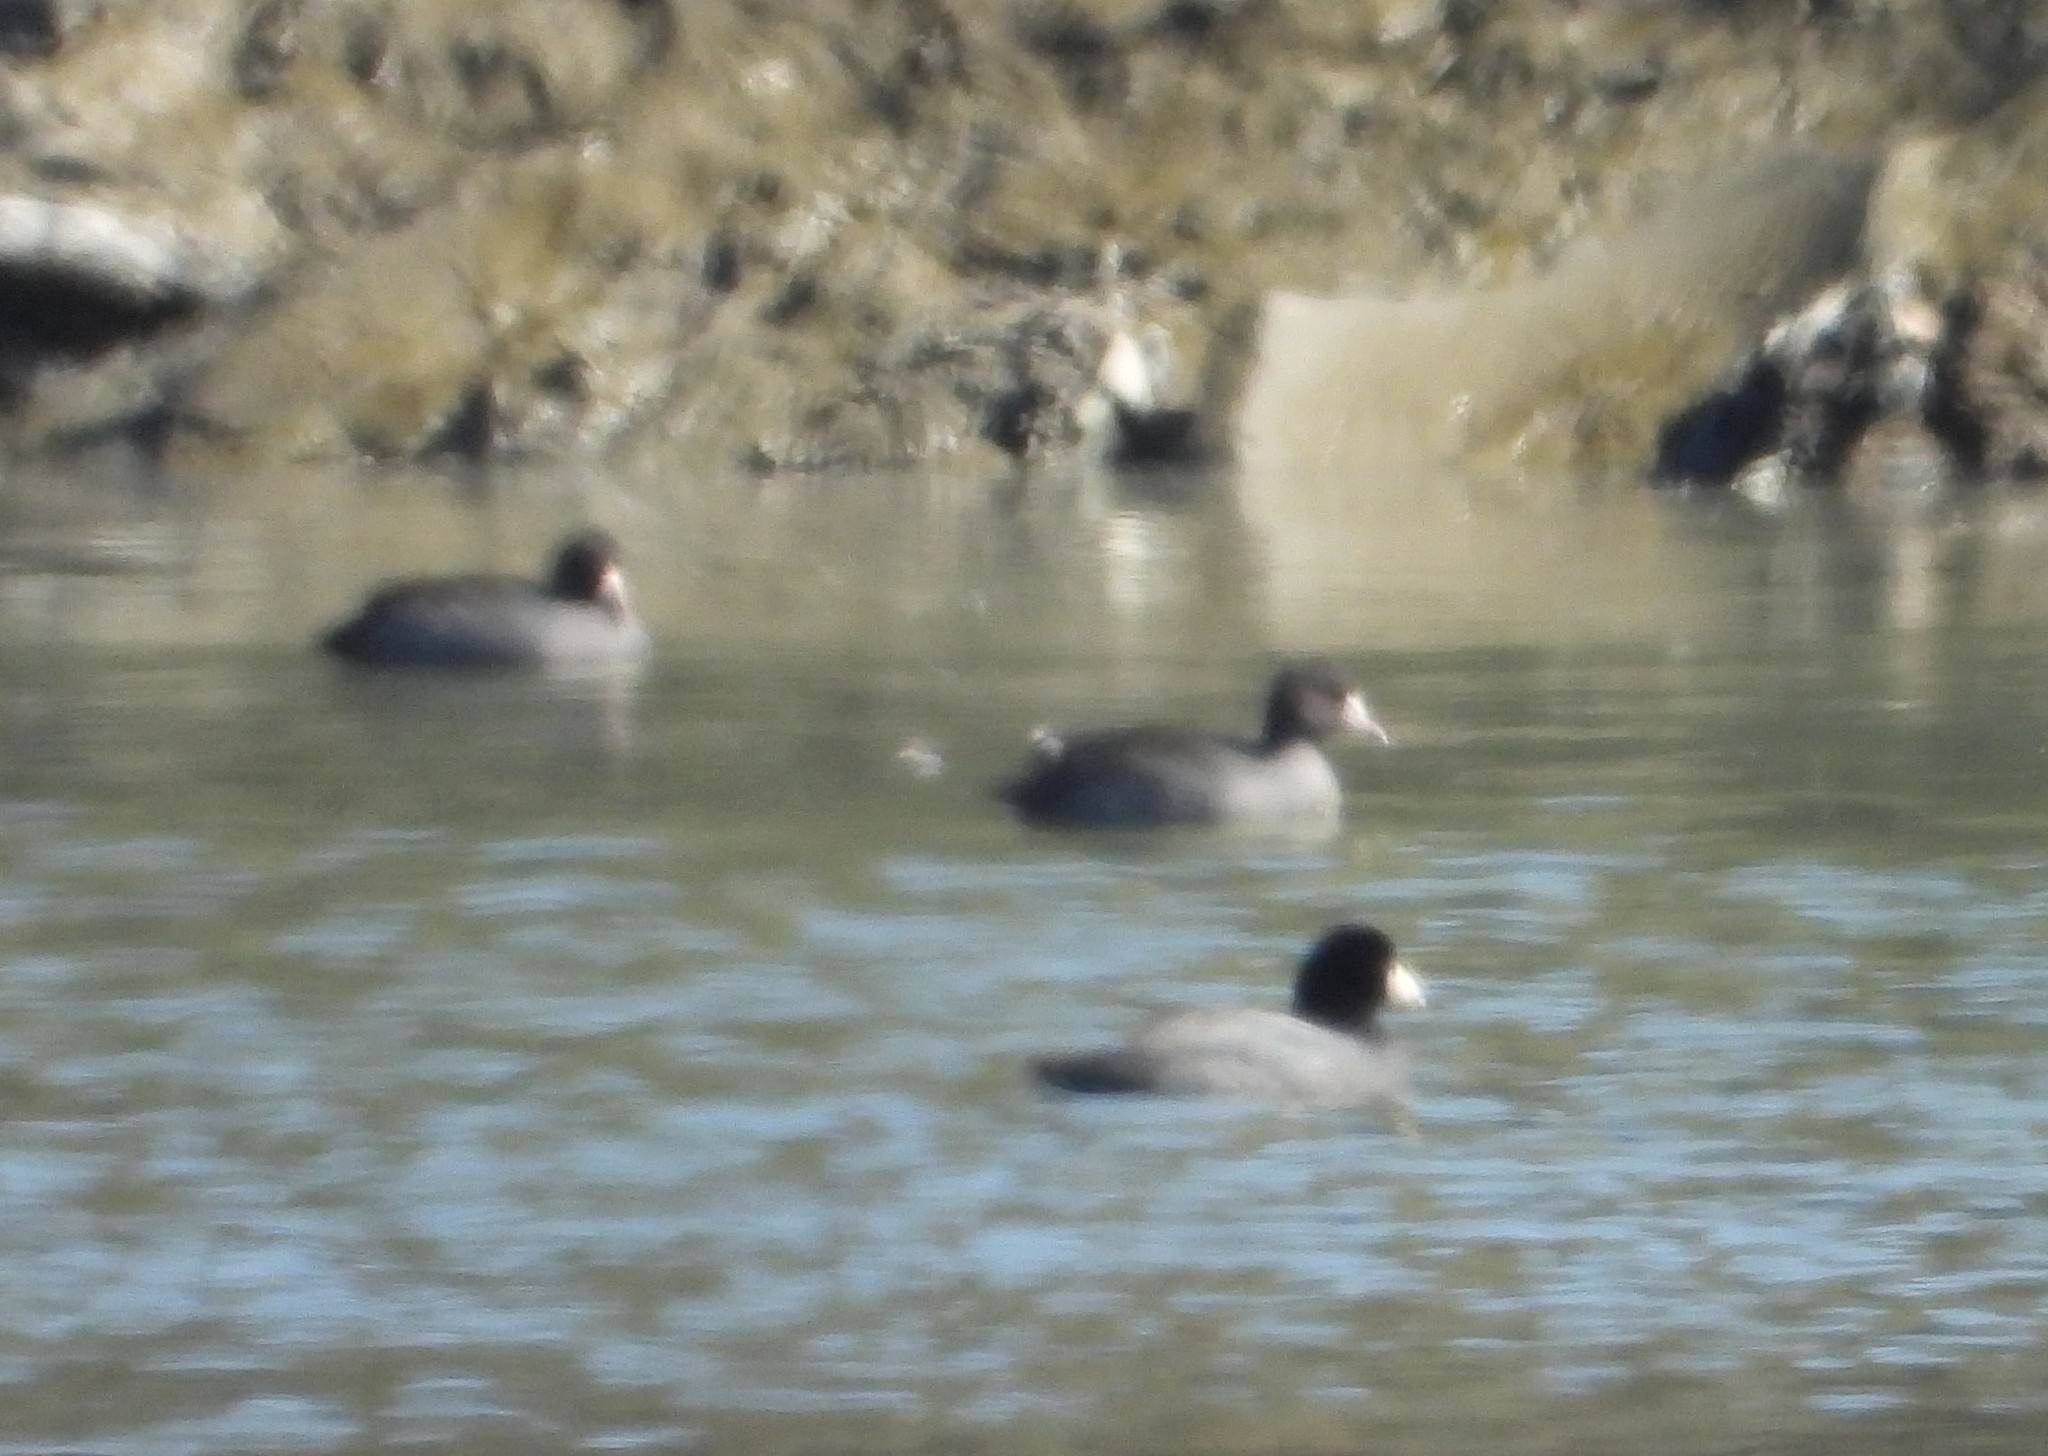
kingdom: Animalia
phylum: Chordata
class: Aves
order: Gruiformes
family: Rallidae
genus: Fulica
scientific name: Fulica americana
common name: American coot
